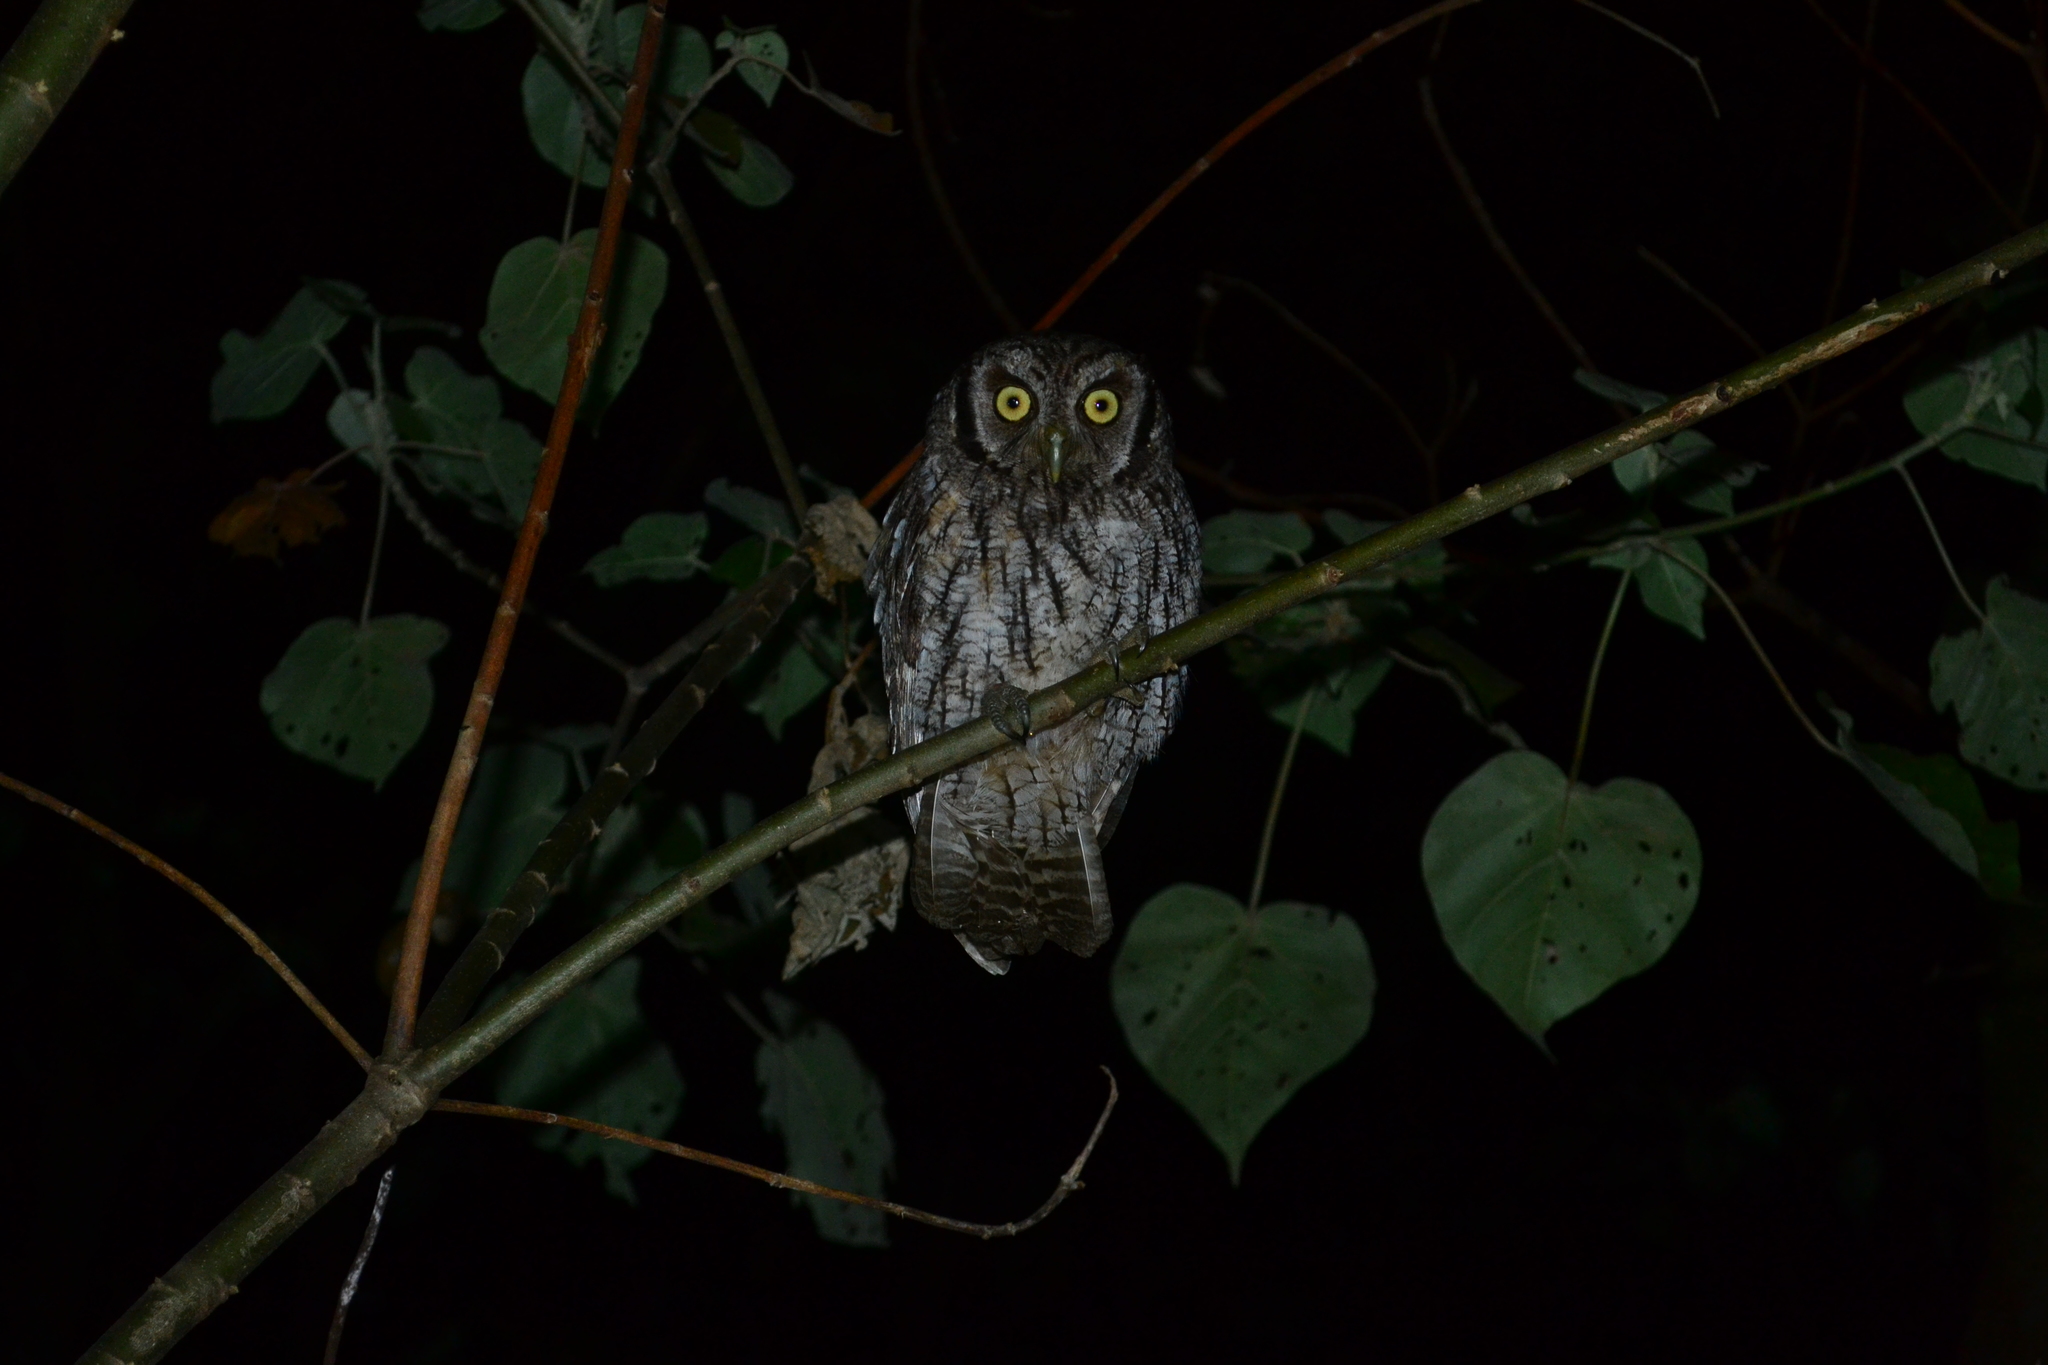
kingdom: Animalia
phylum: Chordata
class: Aves
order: Strigiformes
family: Strigidae
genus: Megascops
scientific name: Megascops choliba
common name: Tropical screech-owl
